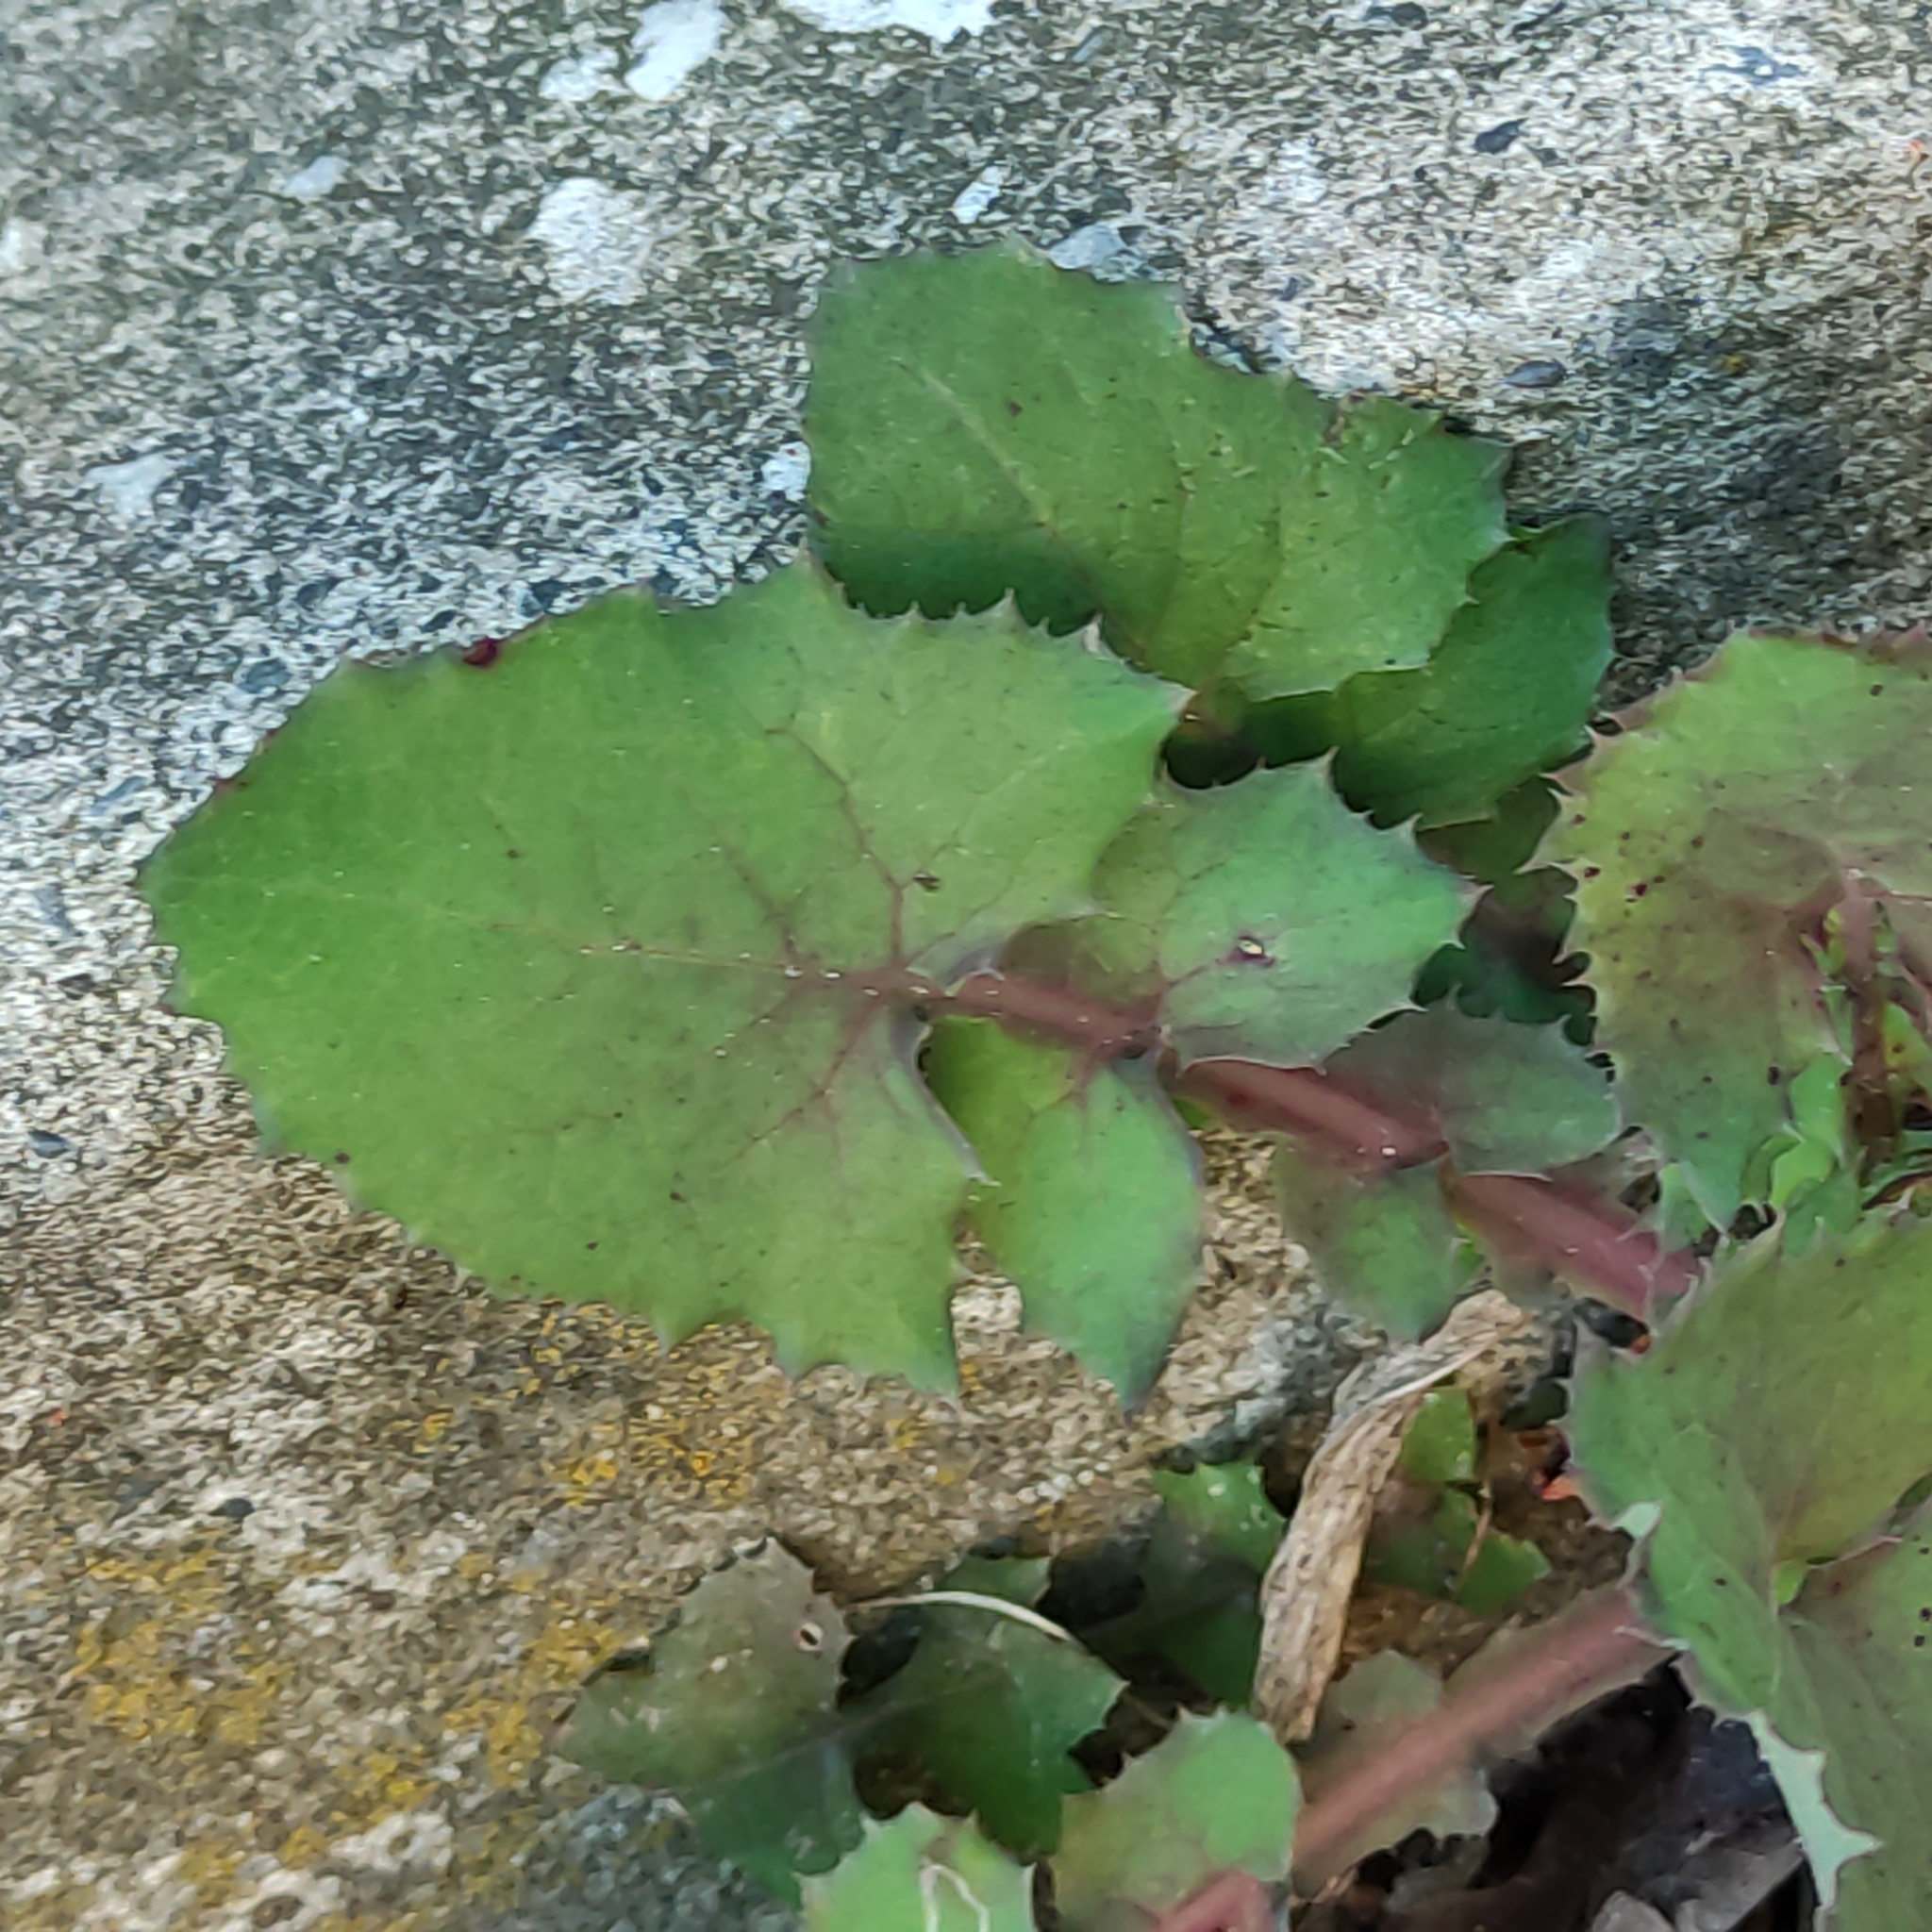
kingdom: Plantae
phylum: Tracheophyta
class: Magnoliopsida
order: Asterales
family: Asteraceae
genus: Sonchus
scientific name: Sonchus oleraceus
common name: Common sowthistle
